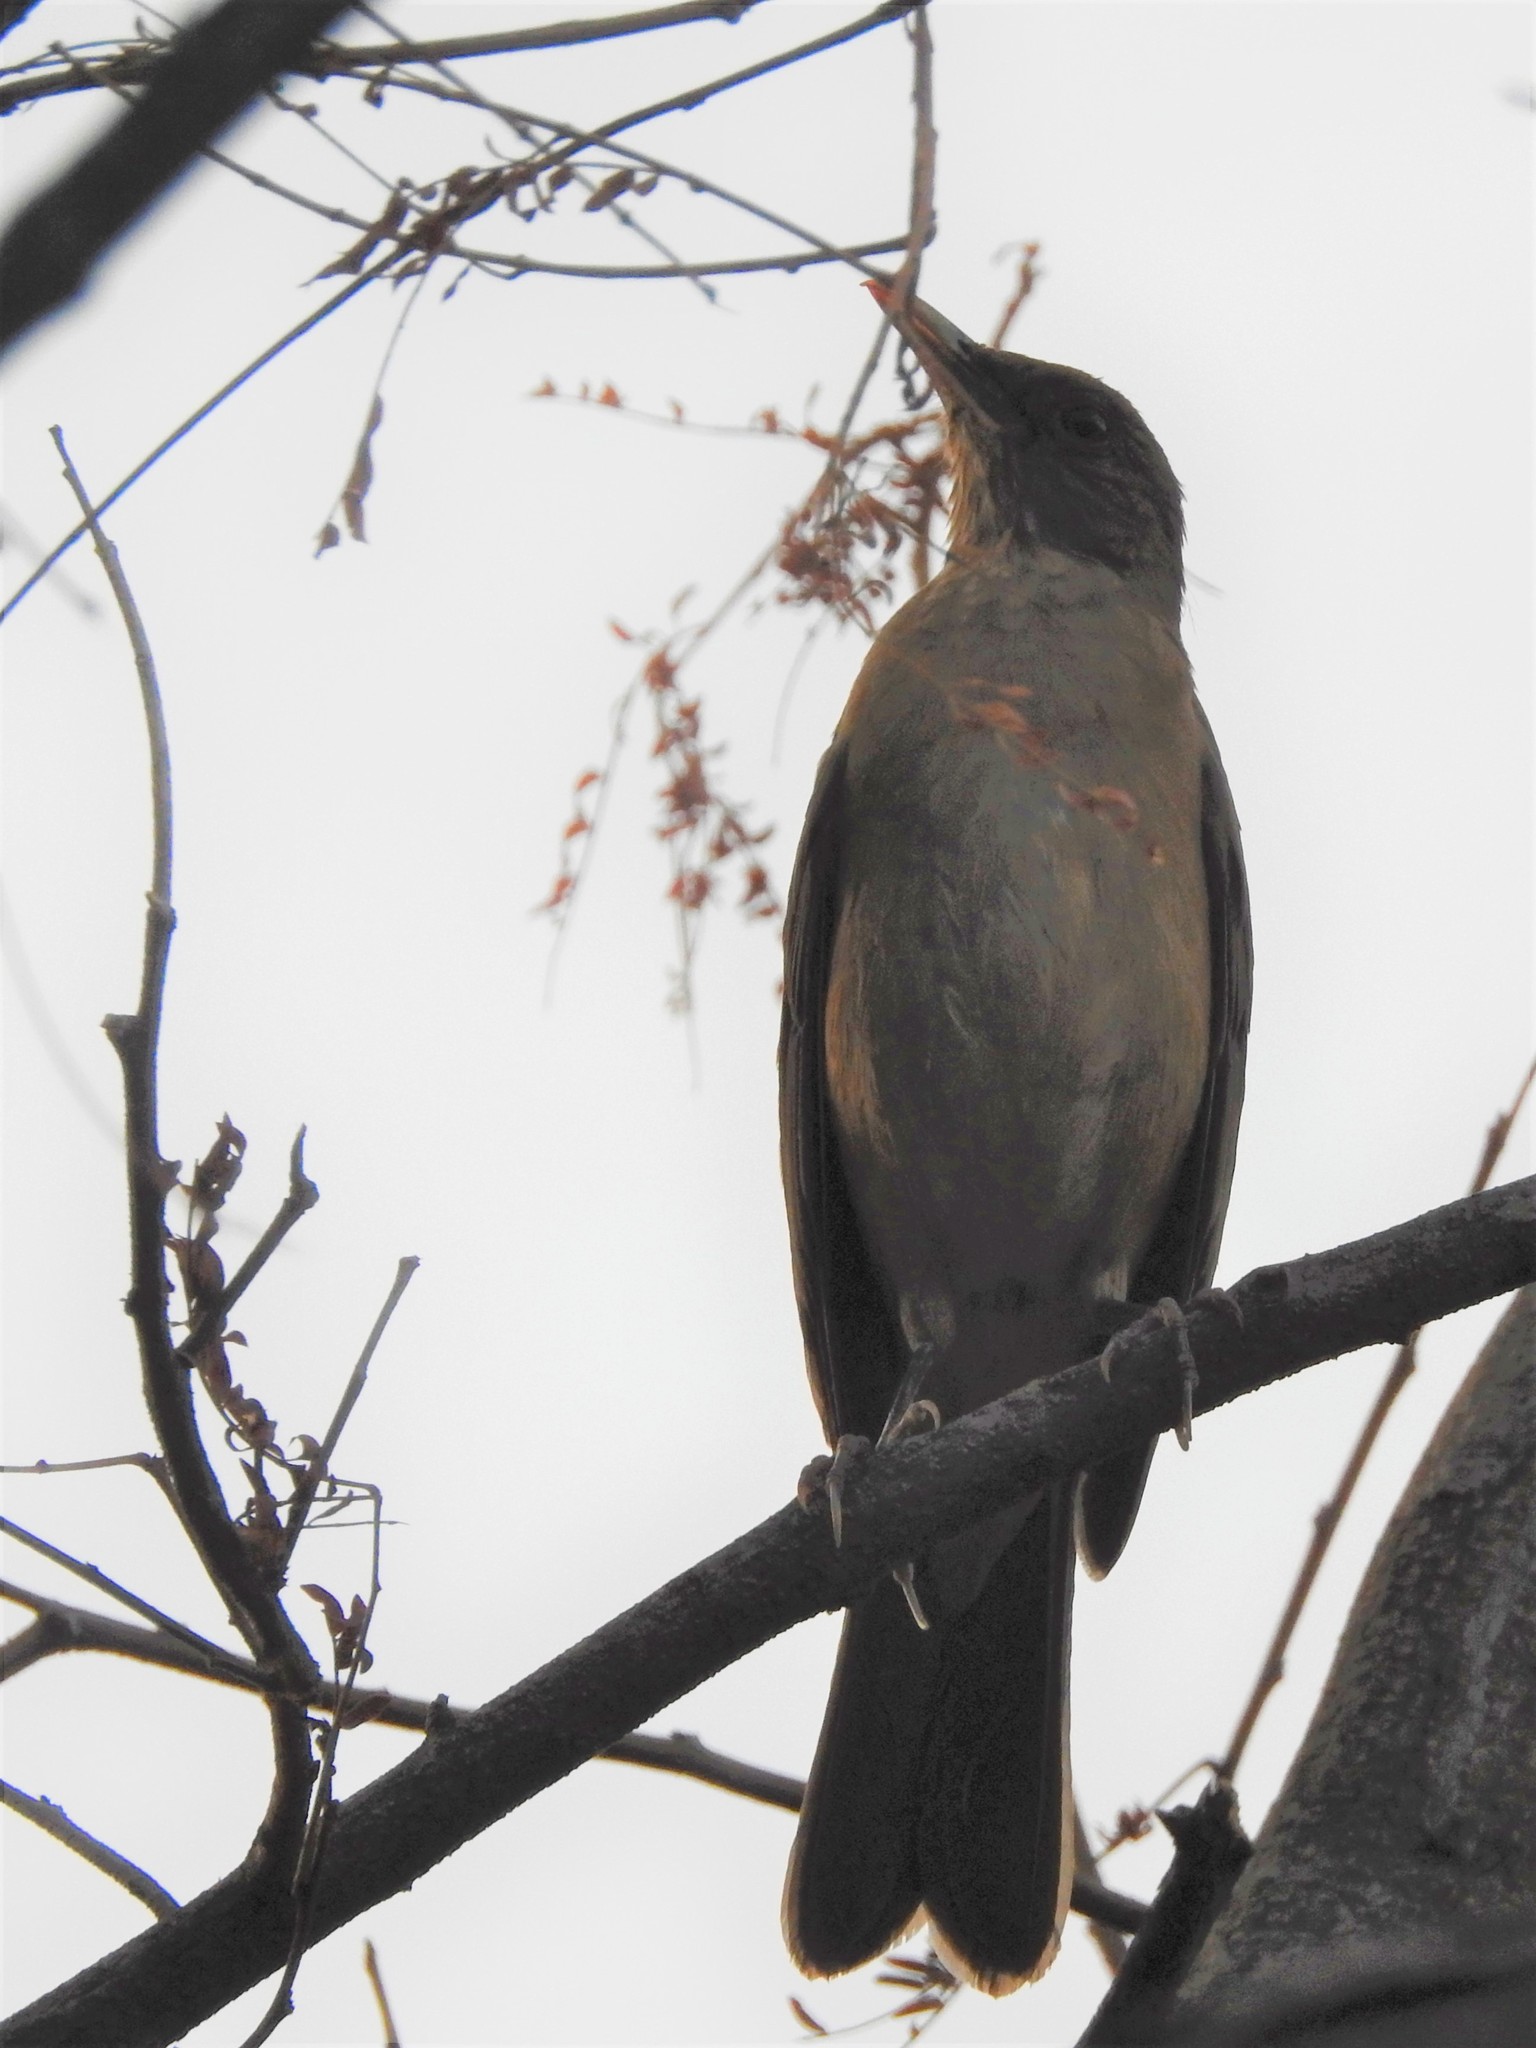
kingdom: Animalia
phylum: Chordata
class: Aves
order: Passeriformes
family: Turdidae
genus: Turdus
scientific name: Turdus grayi
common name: Clay-colored thrush
